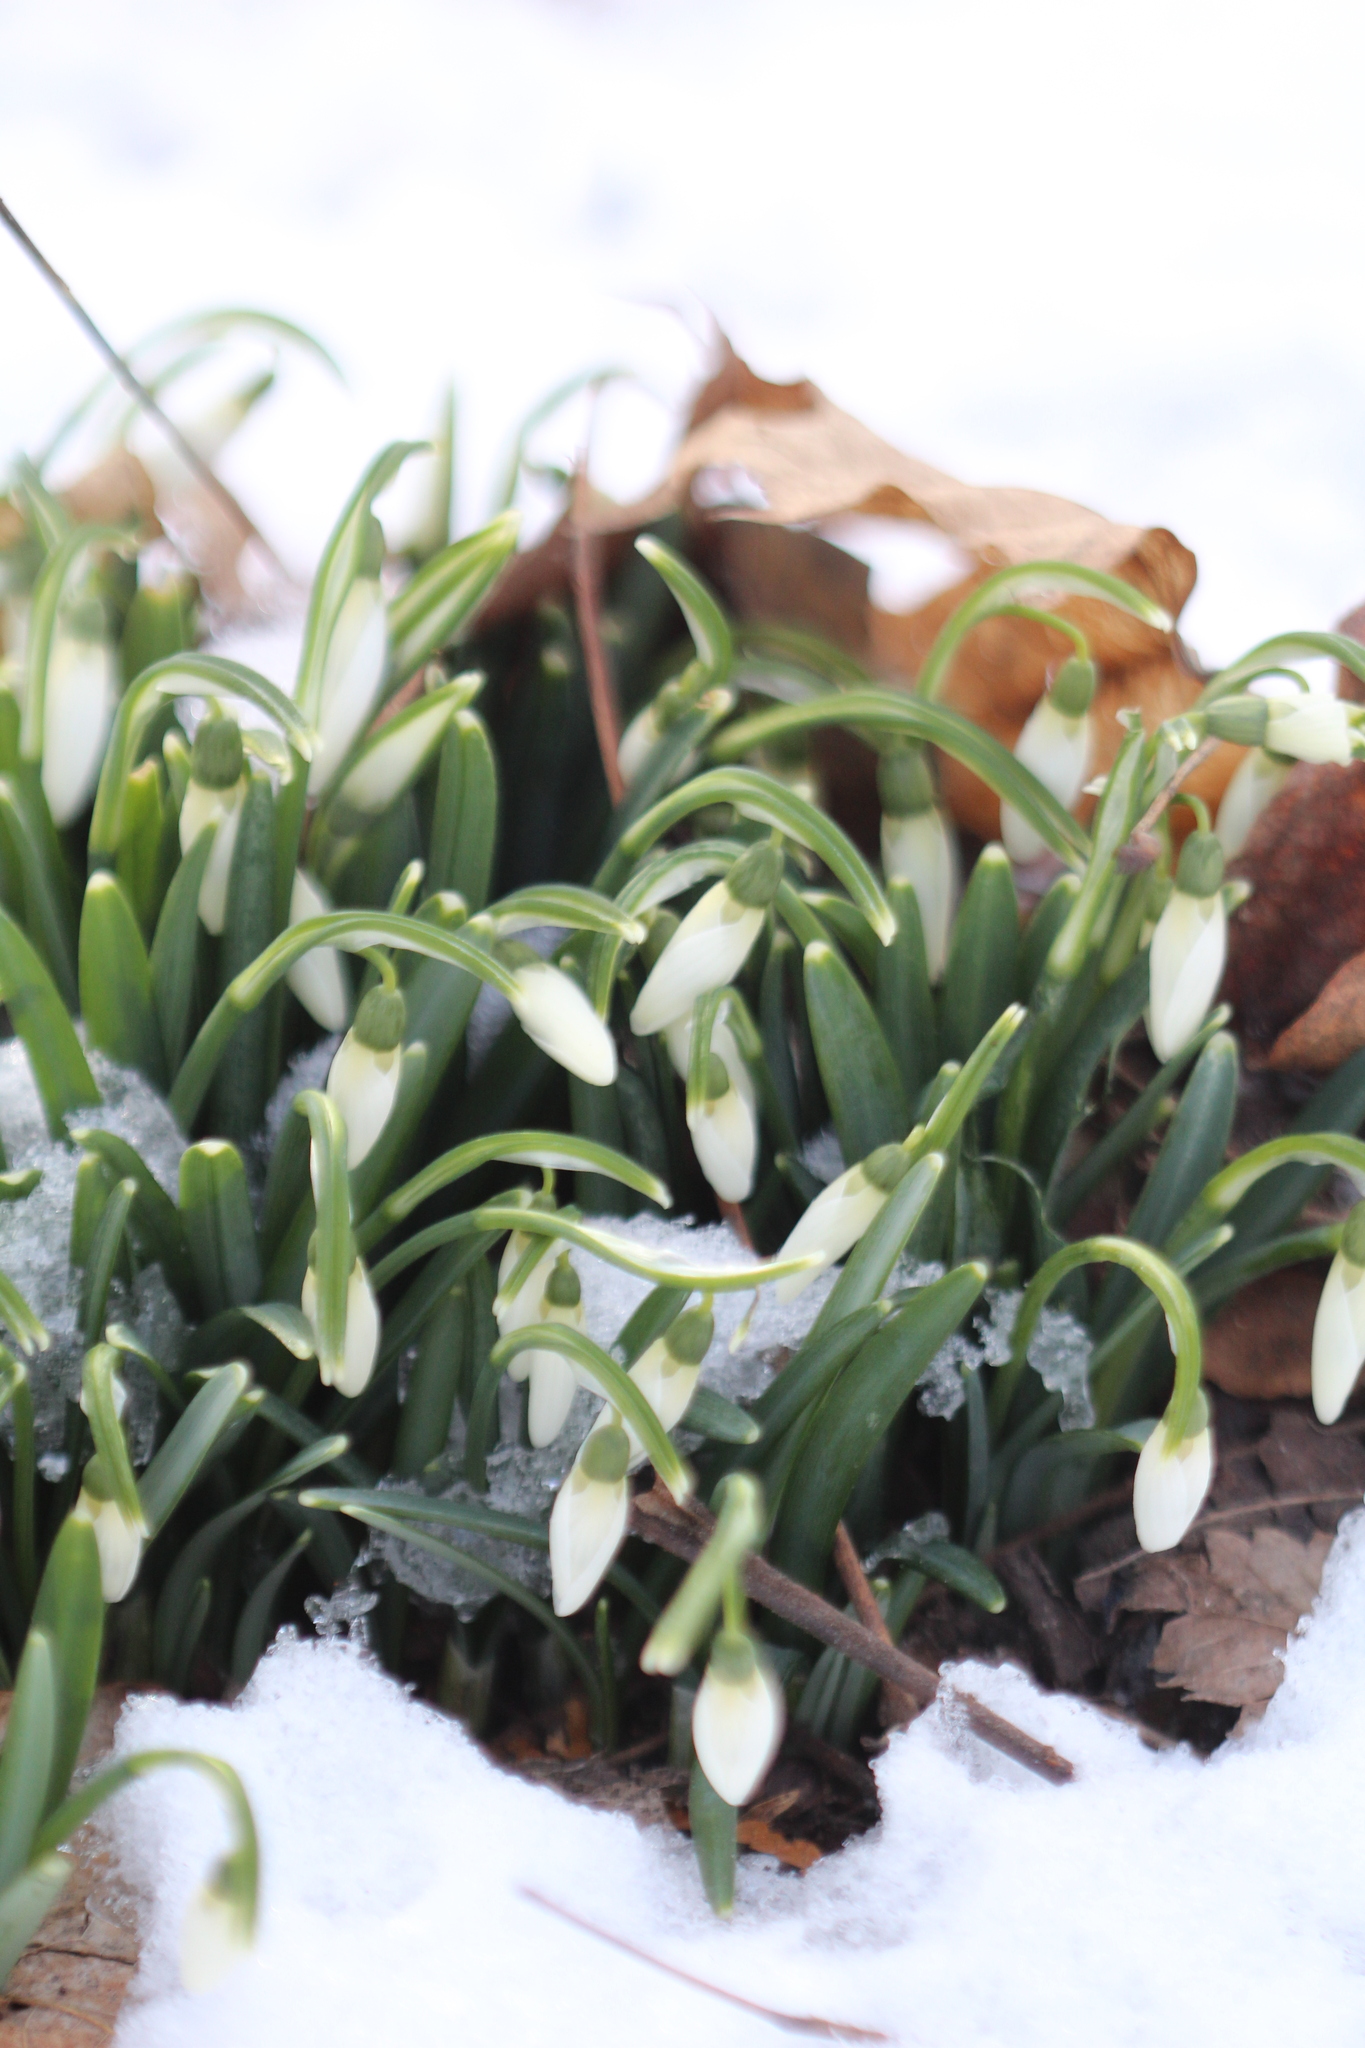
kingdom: Plantae
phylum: Tracheophyta
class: Liliopsida
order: Asparagales
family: Amaryllidaceae
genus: Galanthus
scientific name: Galanthus nivalis
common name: Snowdrop
